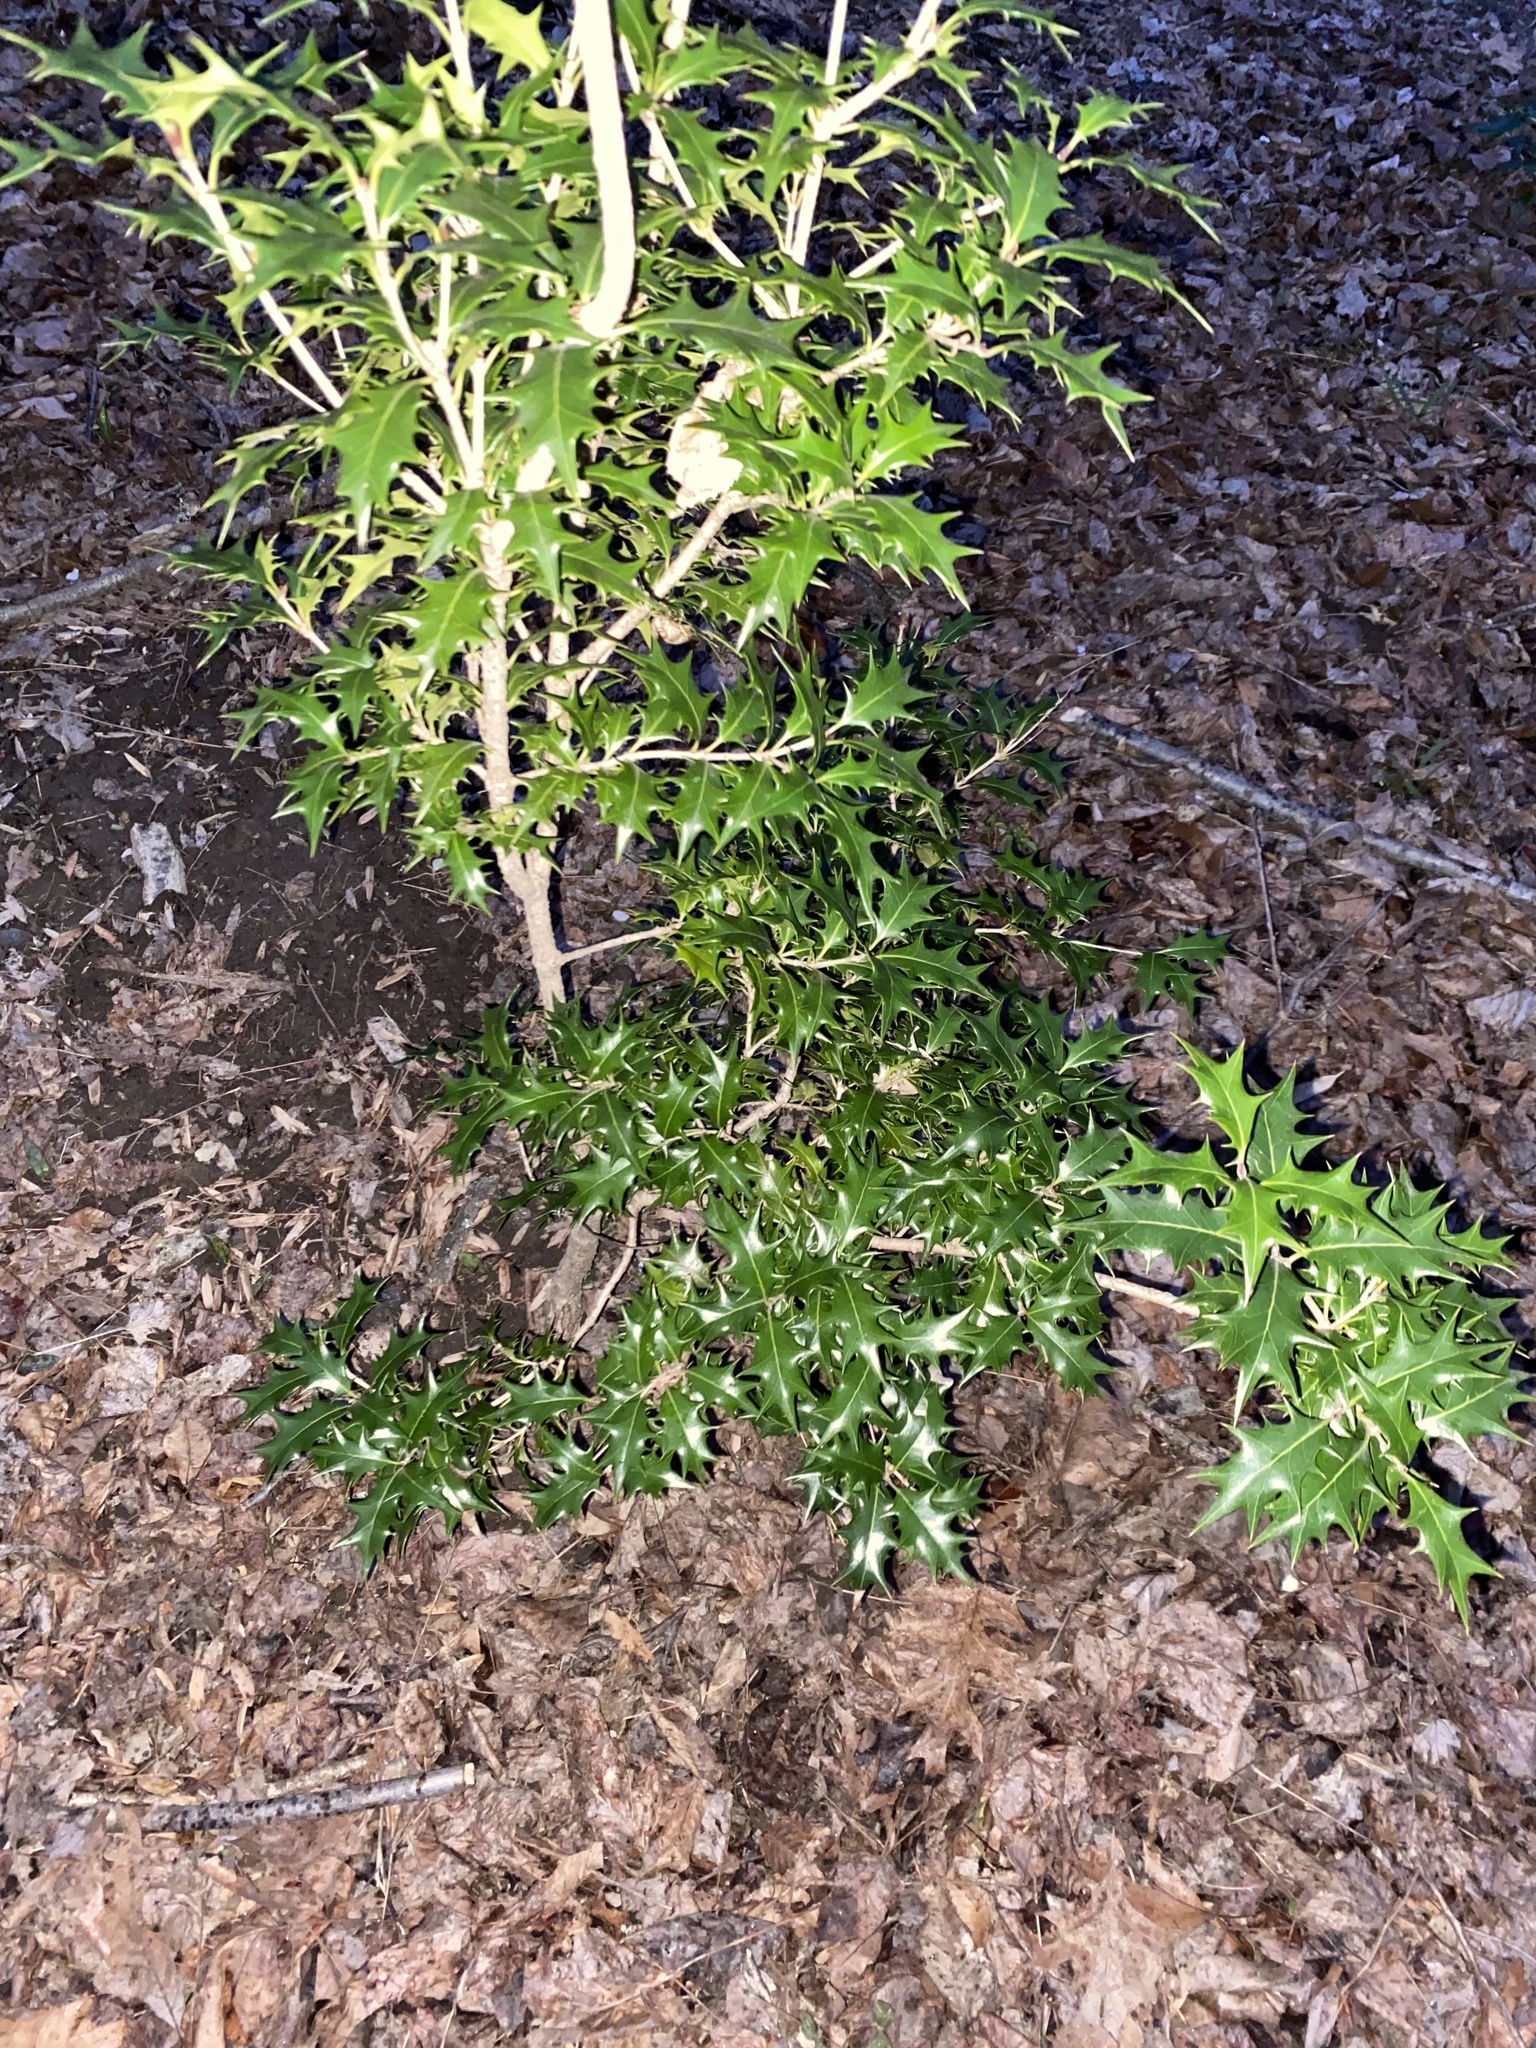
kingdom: Plantae
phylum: Tracheophyta
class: Magnoliopsida
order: Lamiales
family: Oleaceae
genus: Osmanthus
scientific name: Osmanthus heterophyllus
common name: Holly osmanthus
